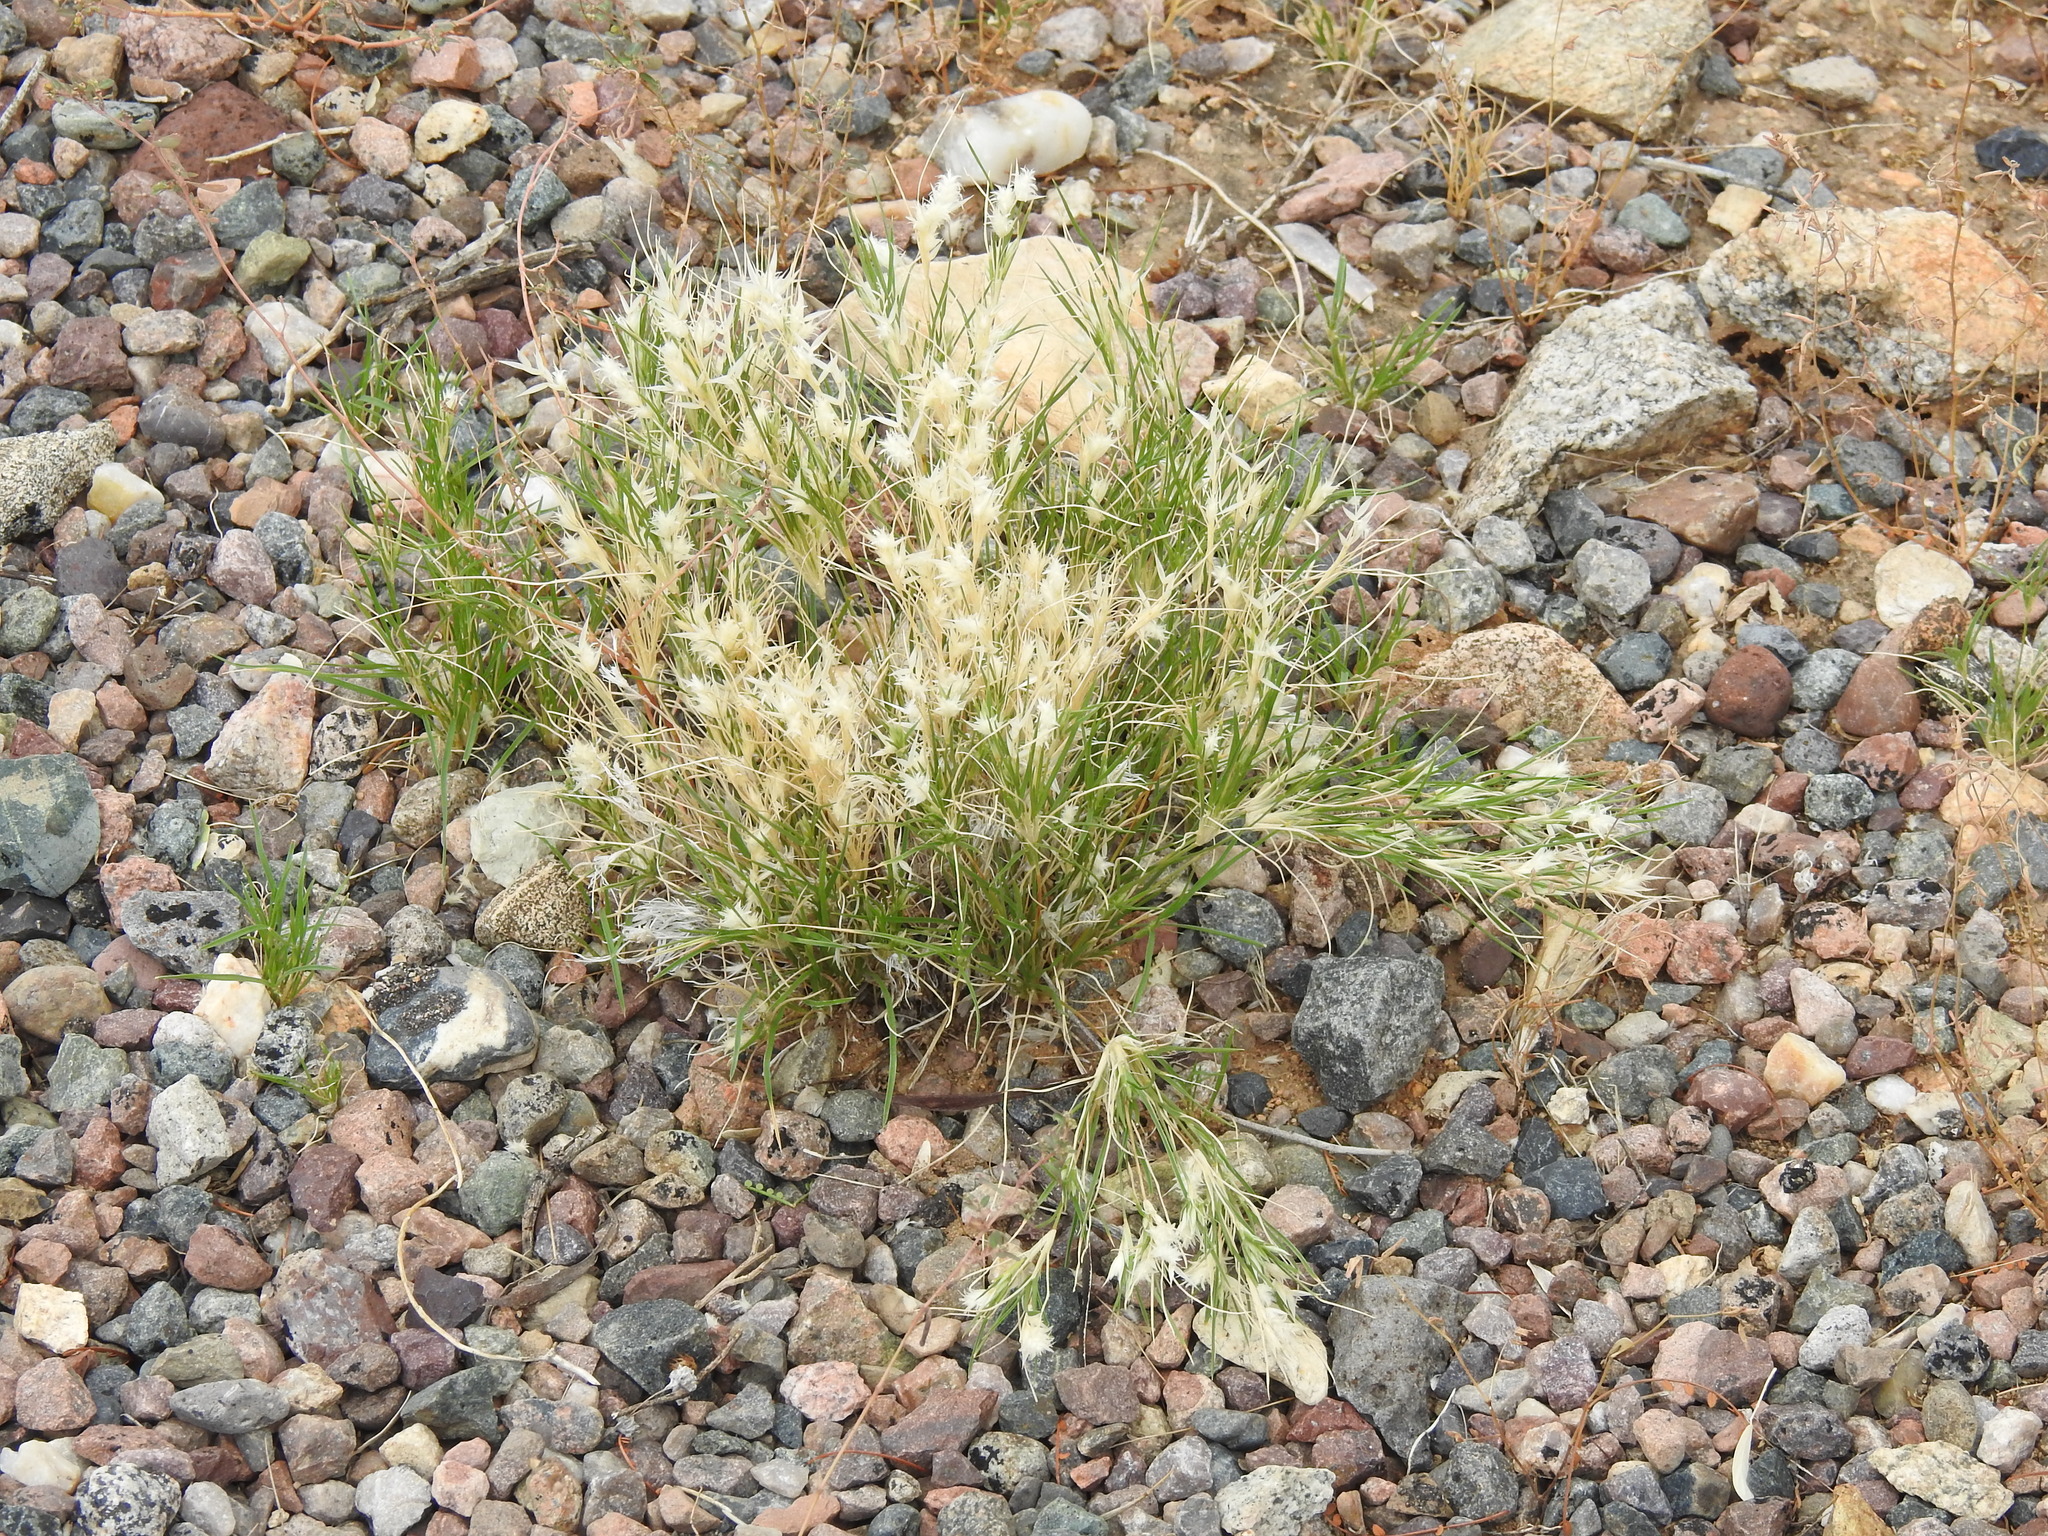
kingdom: Plantae
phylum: Tracheophyta
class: Liliopsida
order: Poales
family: Poaceae
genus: Dasyochloa
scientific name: Dasyochloa pulchella
